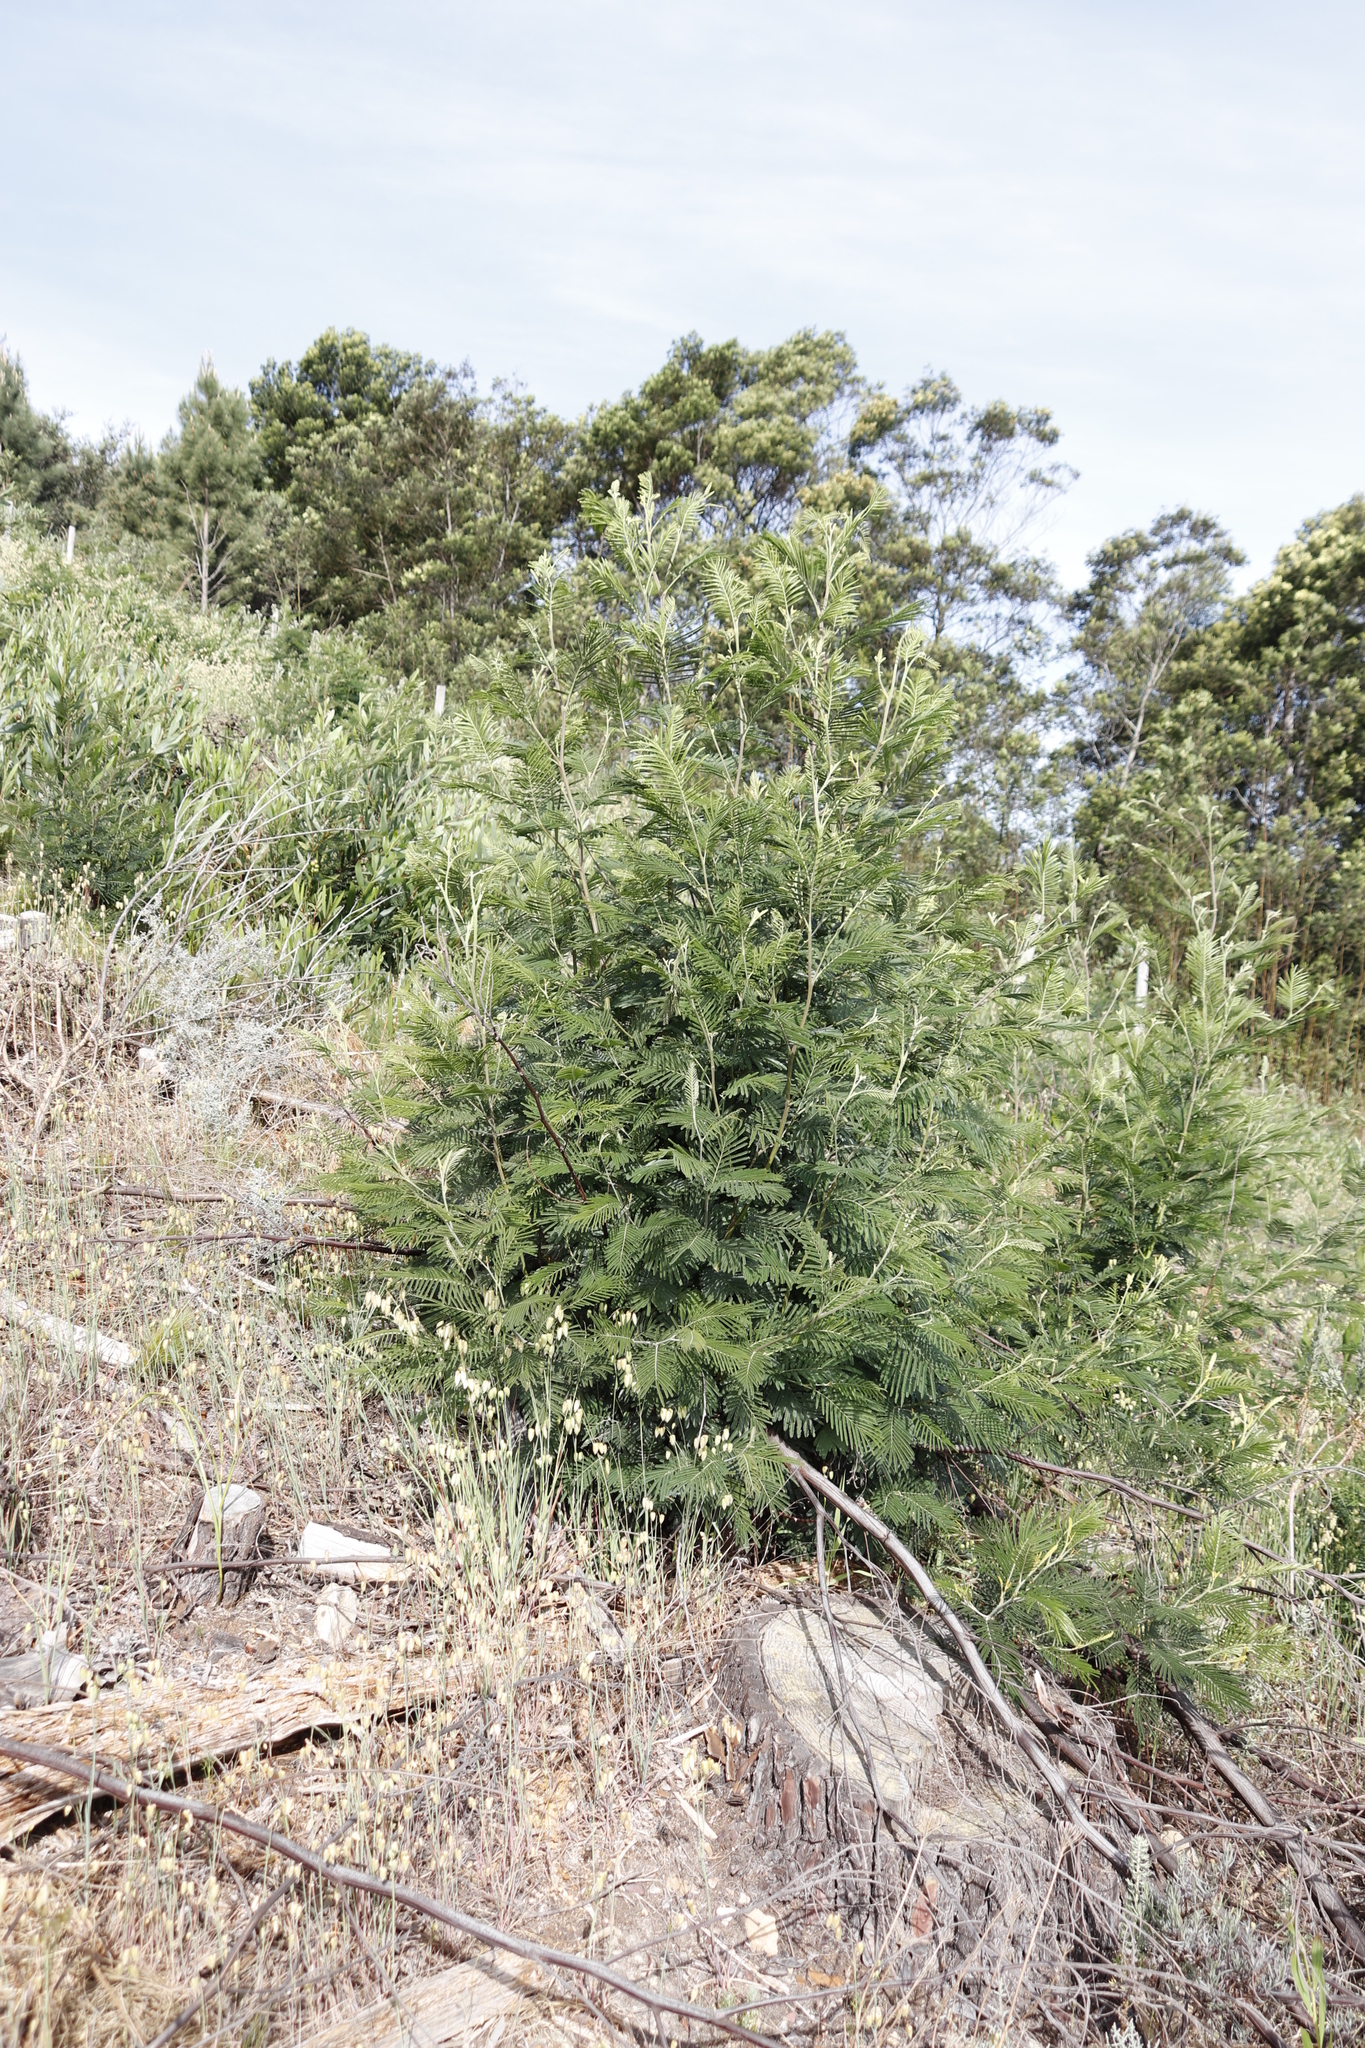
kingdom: Plantae
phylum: Tracheophyta
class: Magnoliopsida
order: Fabales
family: Fabaceae
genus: Acacia
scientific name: Acacia mearnsii
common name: Black wattle
